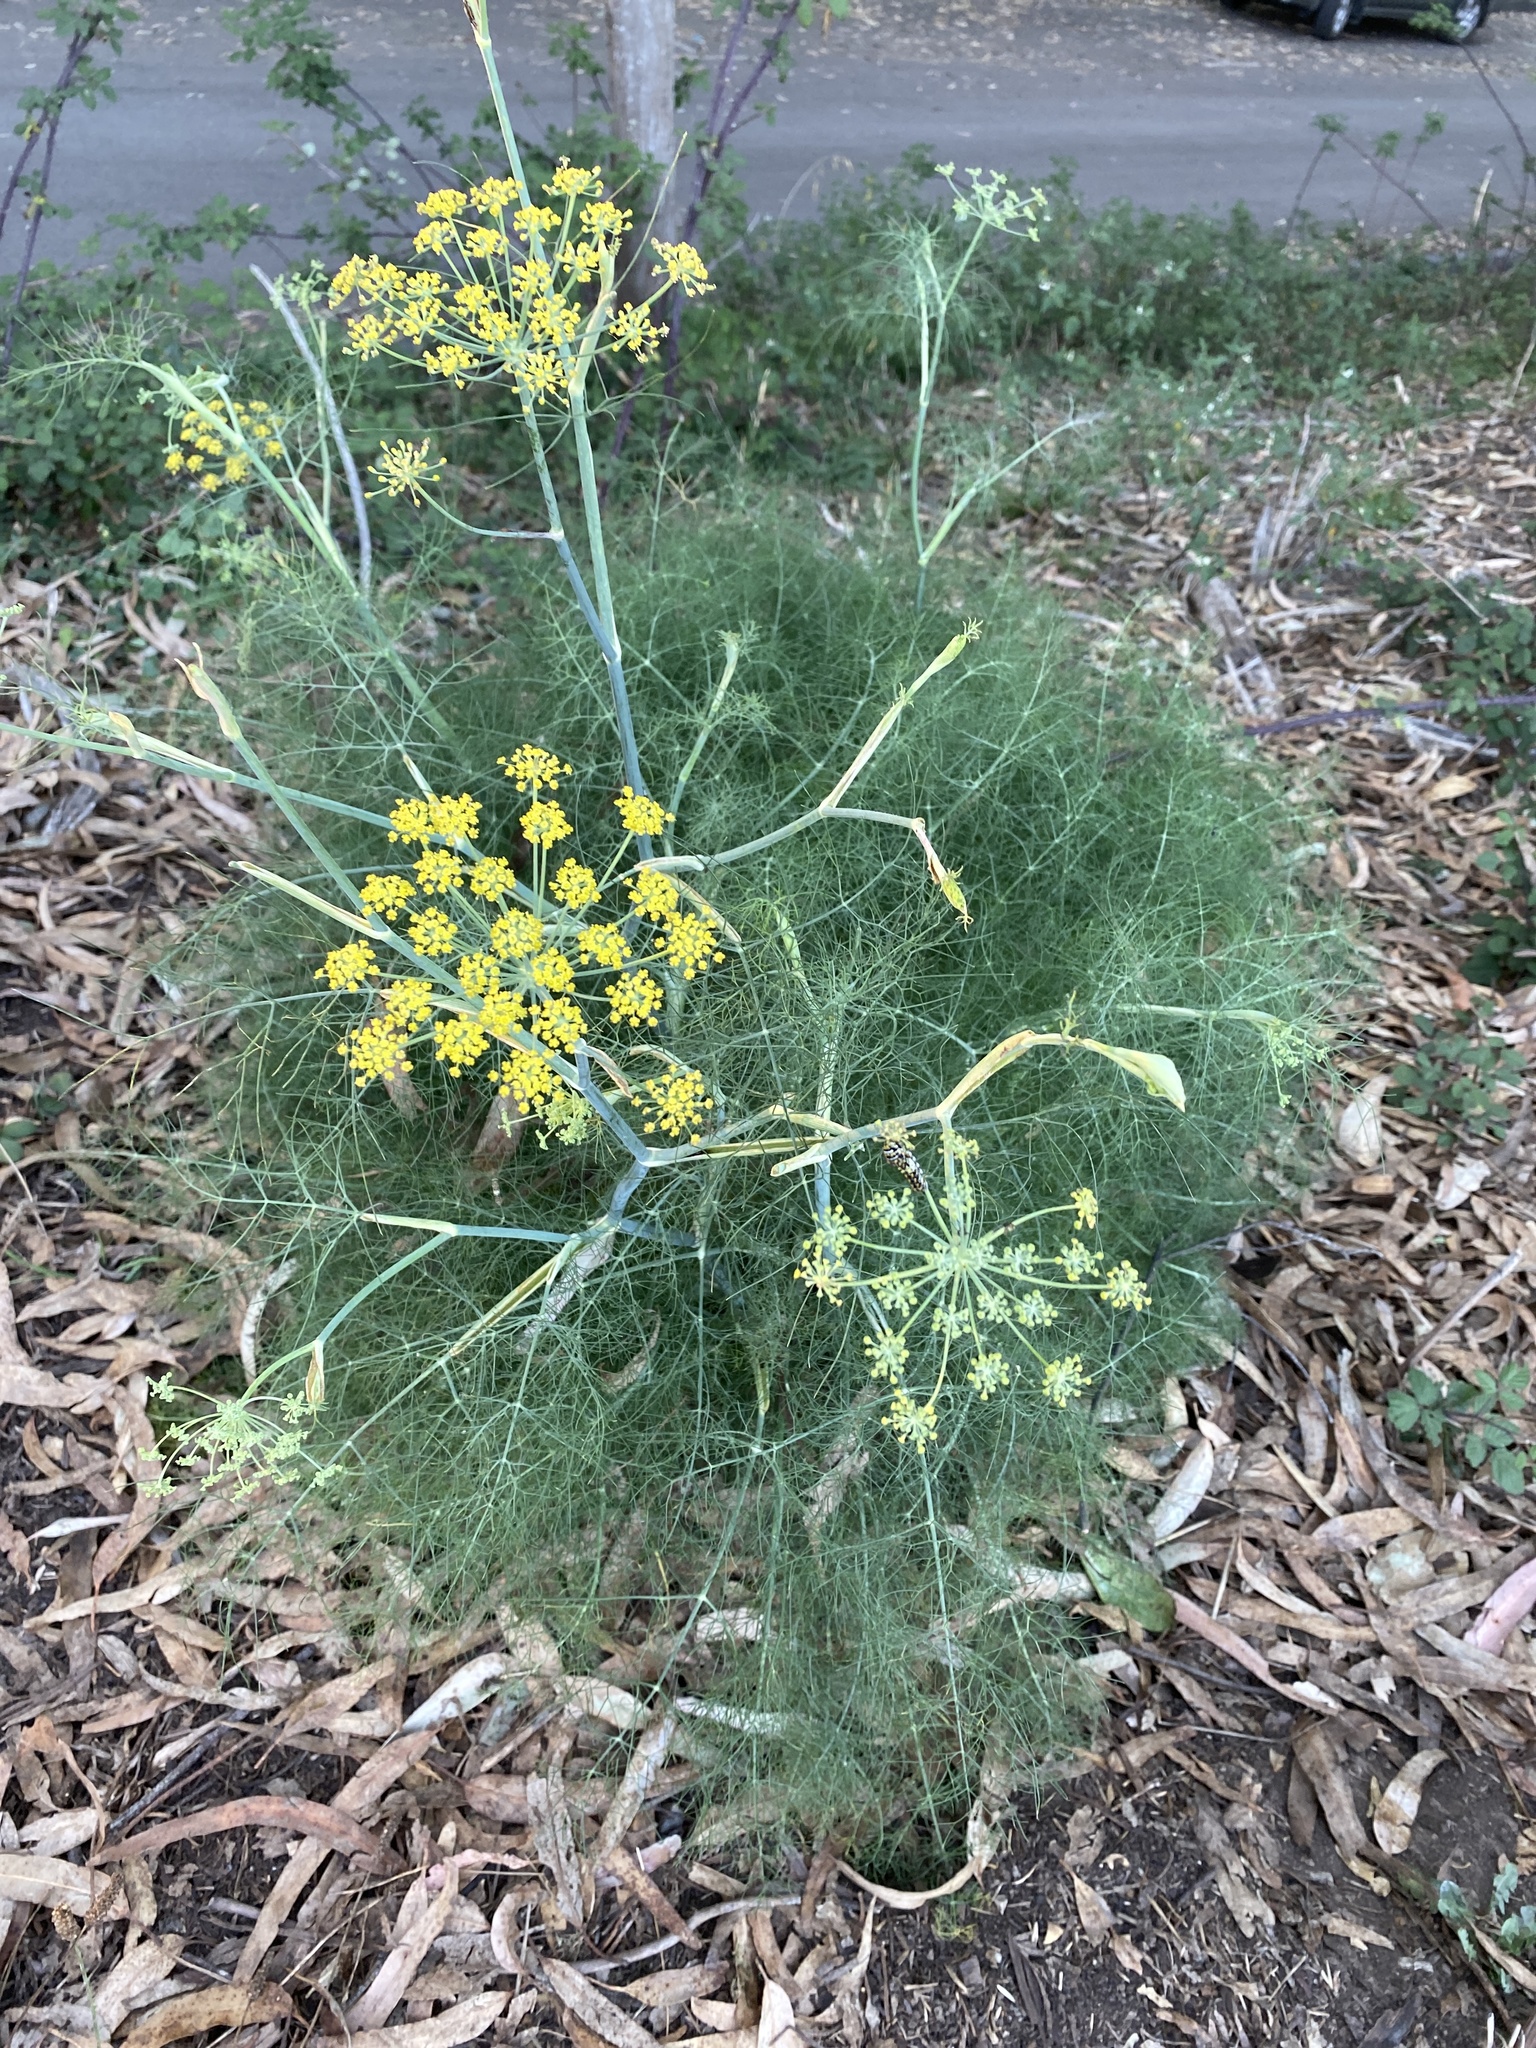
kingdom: Plantae
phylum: Tracheophyta
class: Magnoliopsida
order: Apiales
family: Apiaceae
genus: Foeniculum
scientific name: Foeniculum vulgare
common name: Fennel
